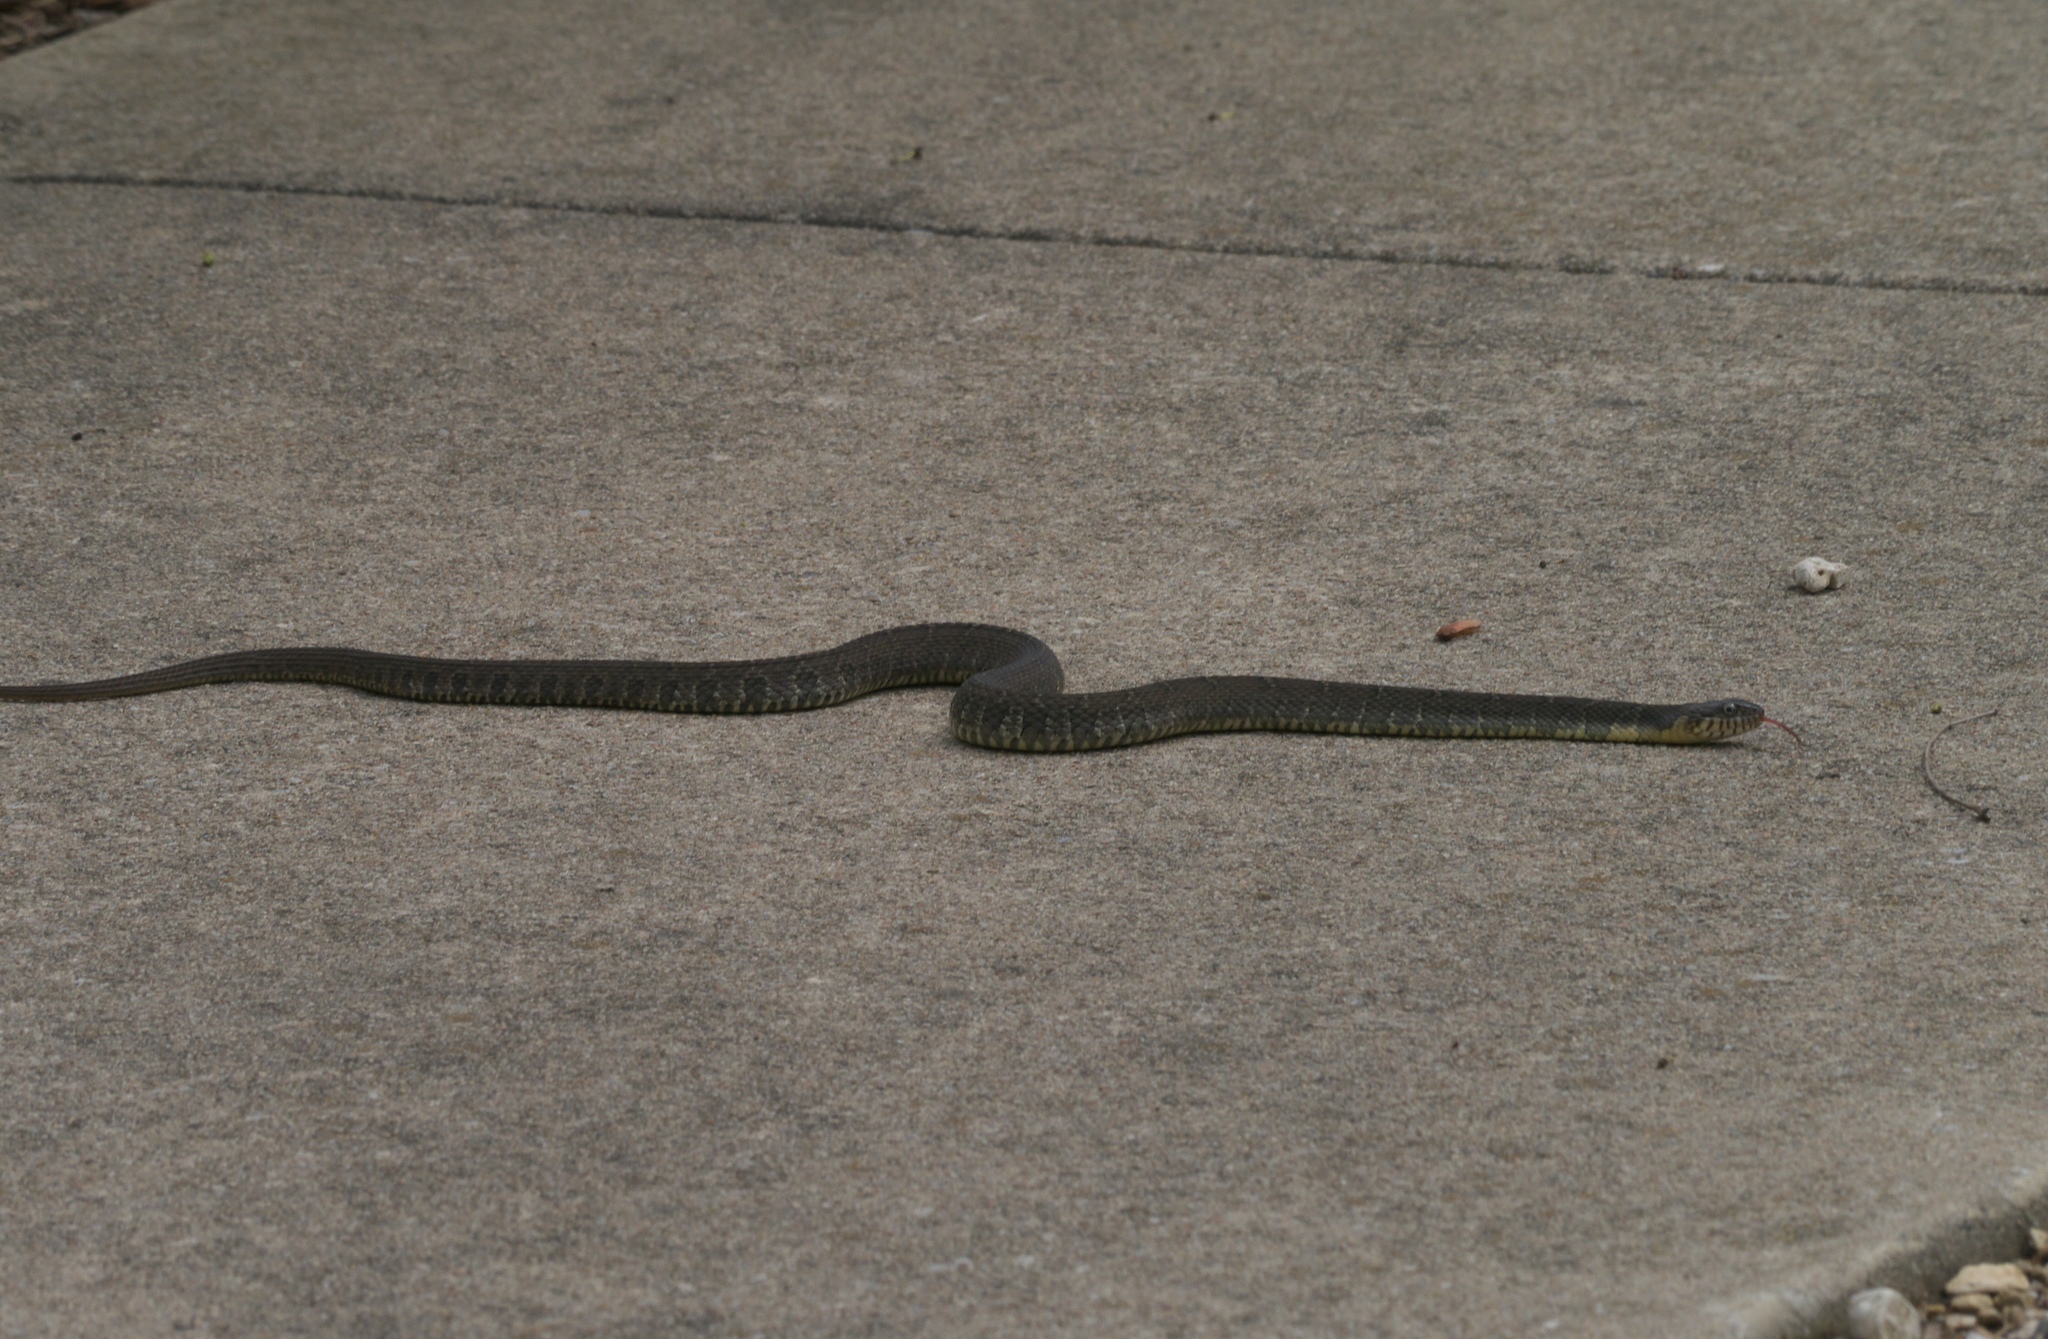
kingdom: Animalia
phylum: Chordata
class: Squamata
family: Colubridae
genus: Nerodia
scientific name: Nerodia erythrogaster
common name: Plainbelly water snake
